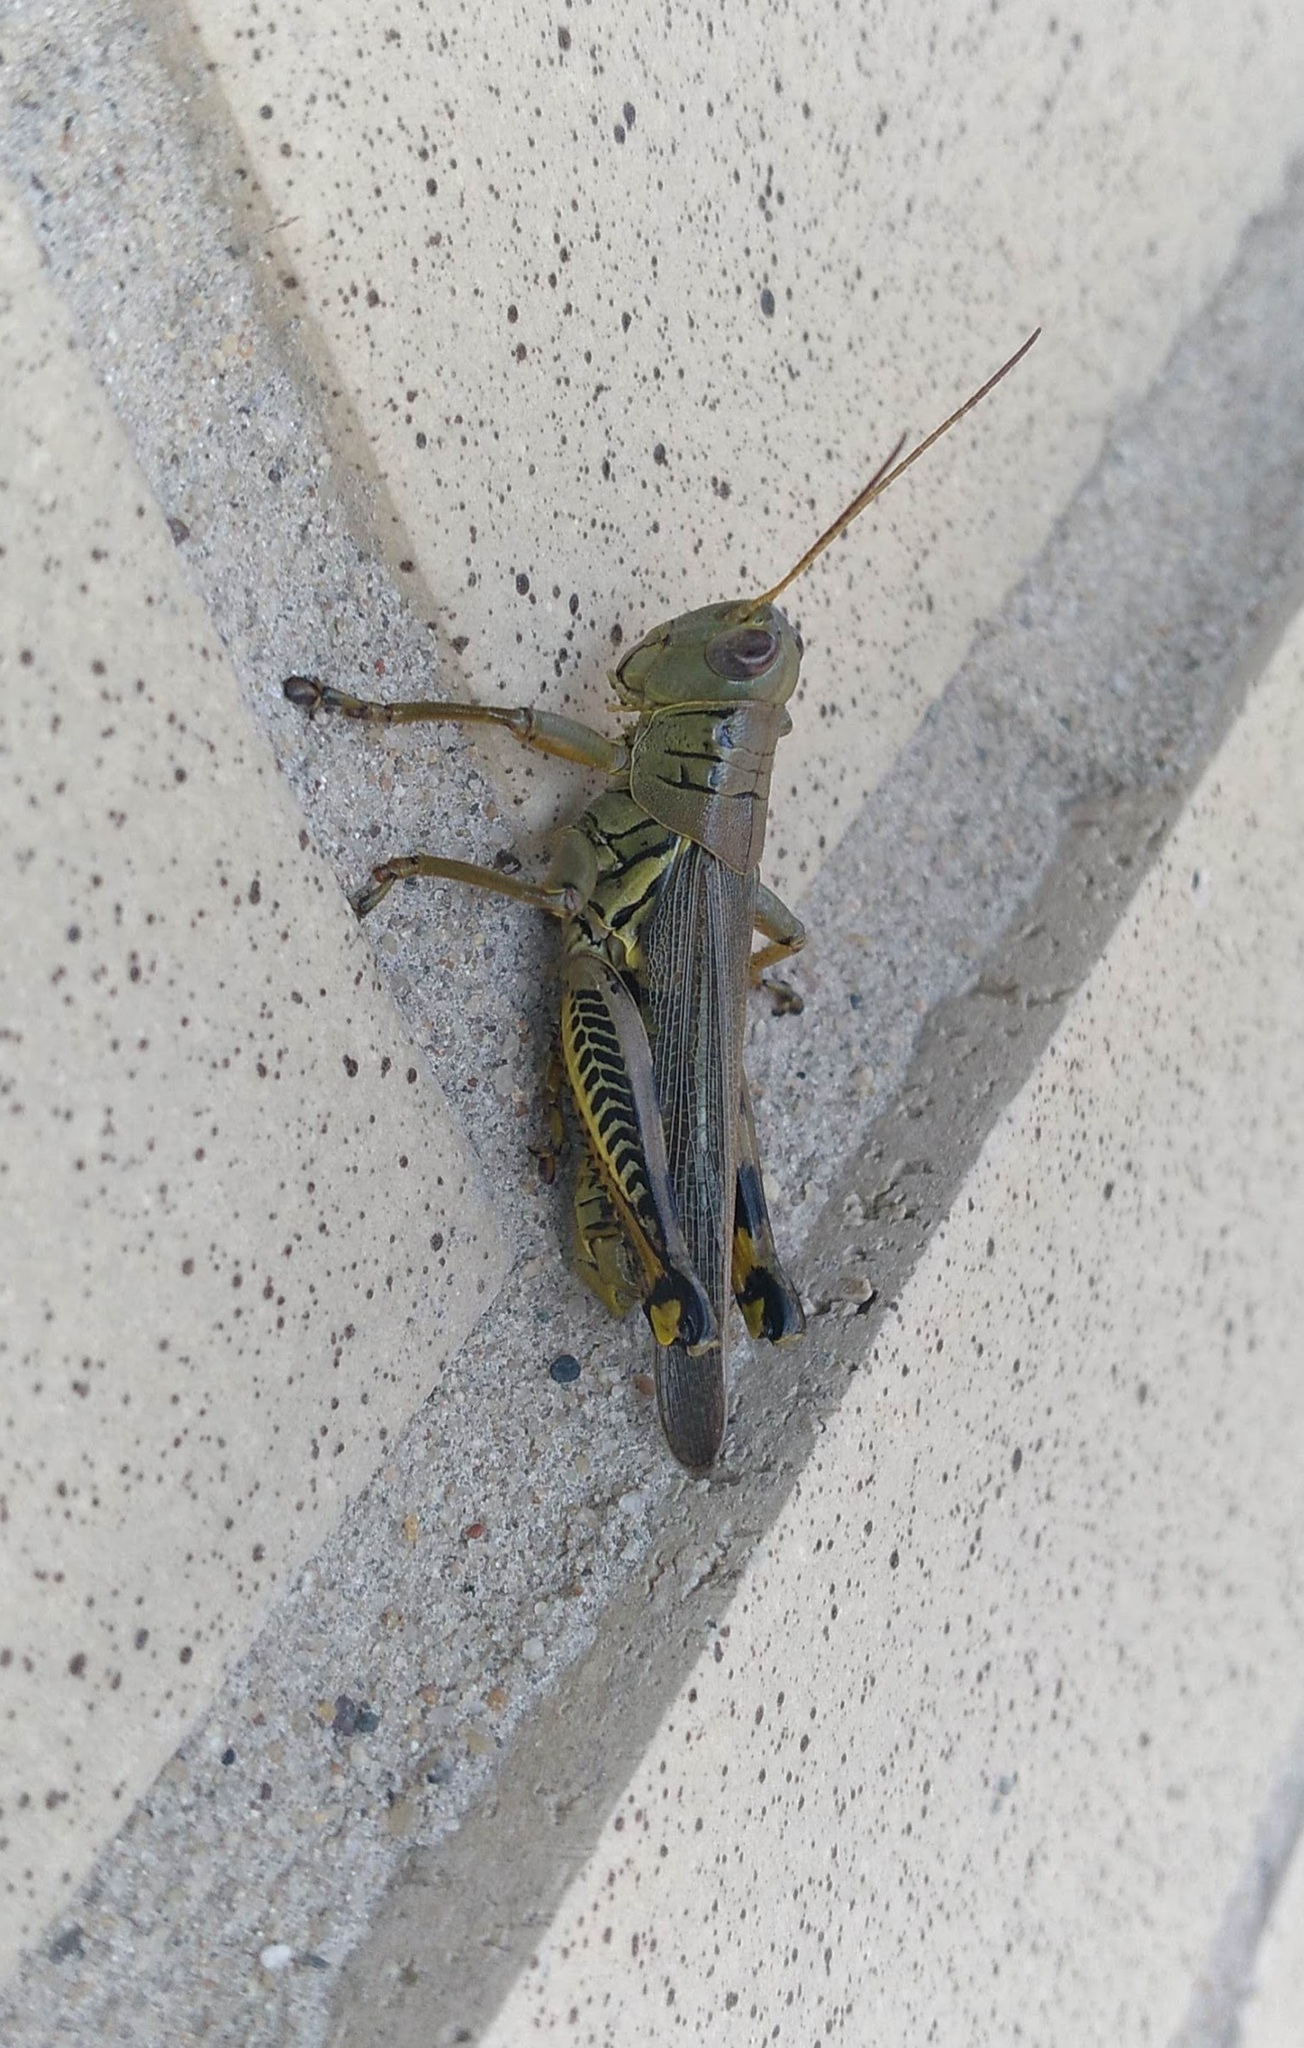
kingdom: Animalia
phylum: Arthropoda
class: Insecta
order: Orthoptera
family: Acrididae
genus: Melanoplus
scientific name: Melanoplus differentialis
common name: Differential grasshopper
